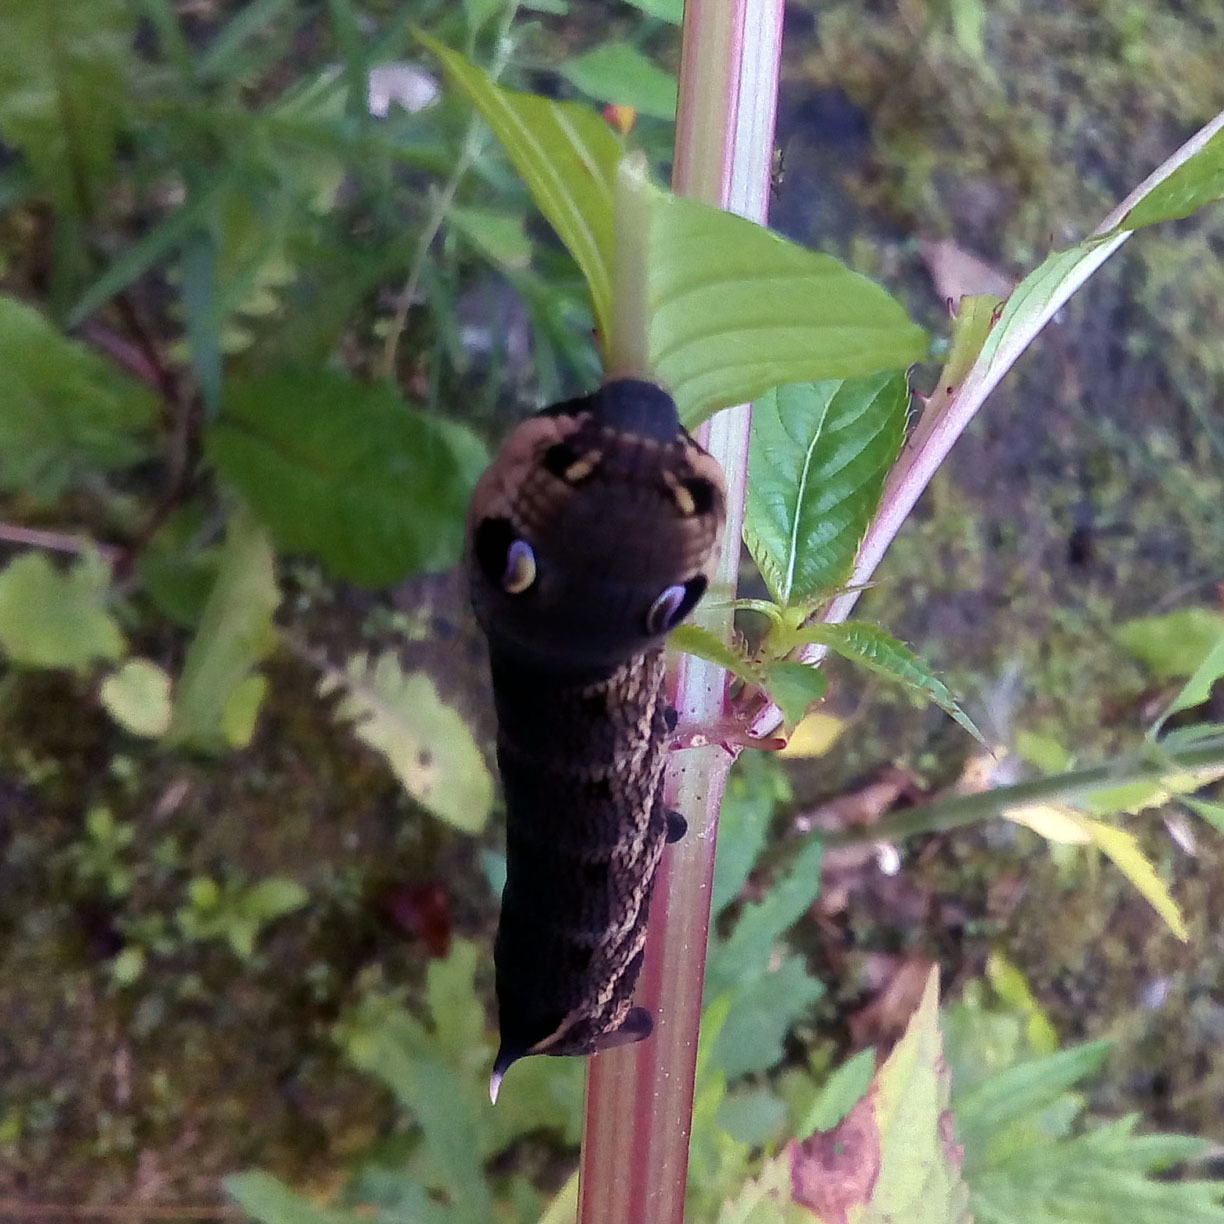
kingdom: Animalia
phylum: Arthropoda
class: Insecta
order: Lepidoptera
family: Sphingidae
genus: Deilephila
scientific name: Deilephila elpenor
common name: Elephant hawk-moth
